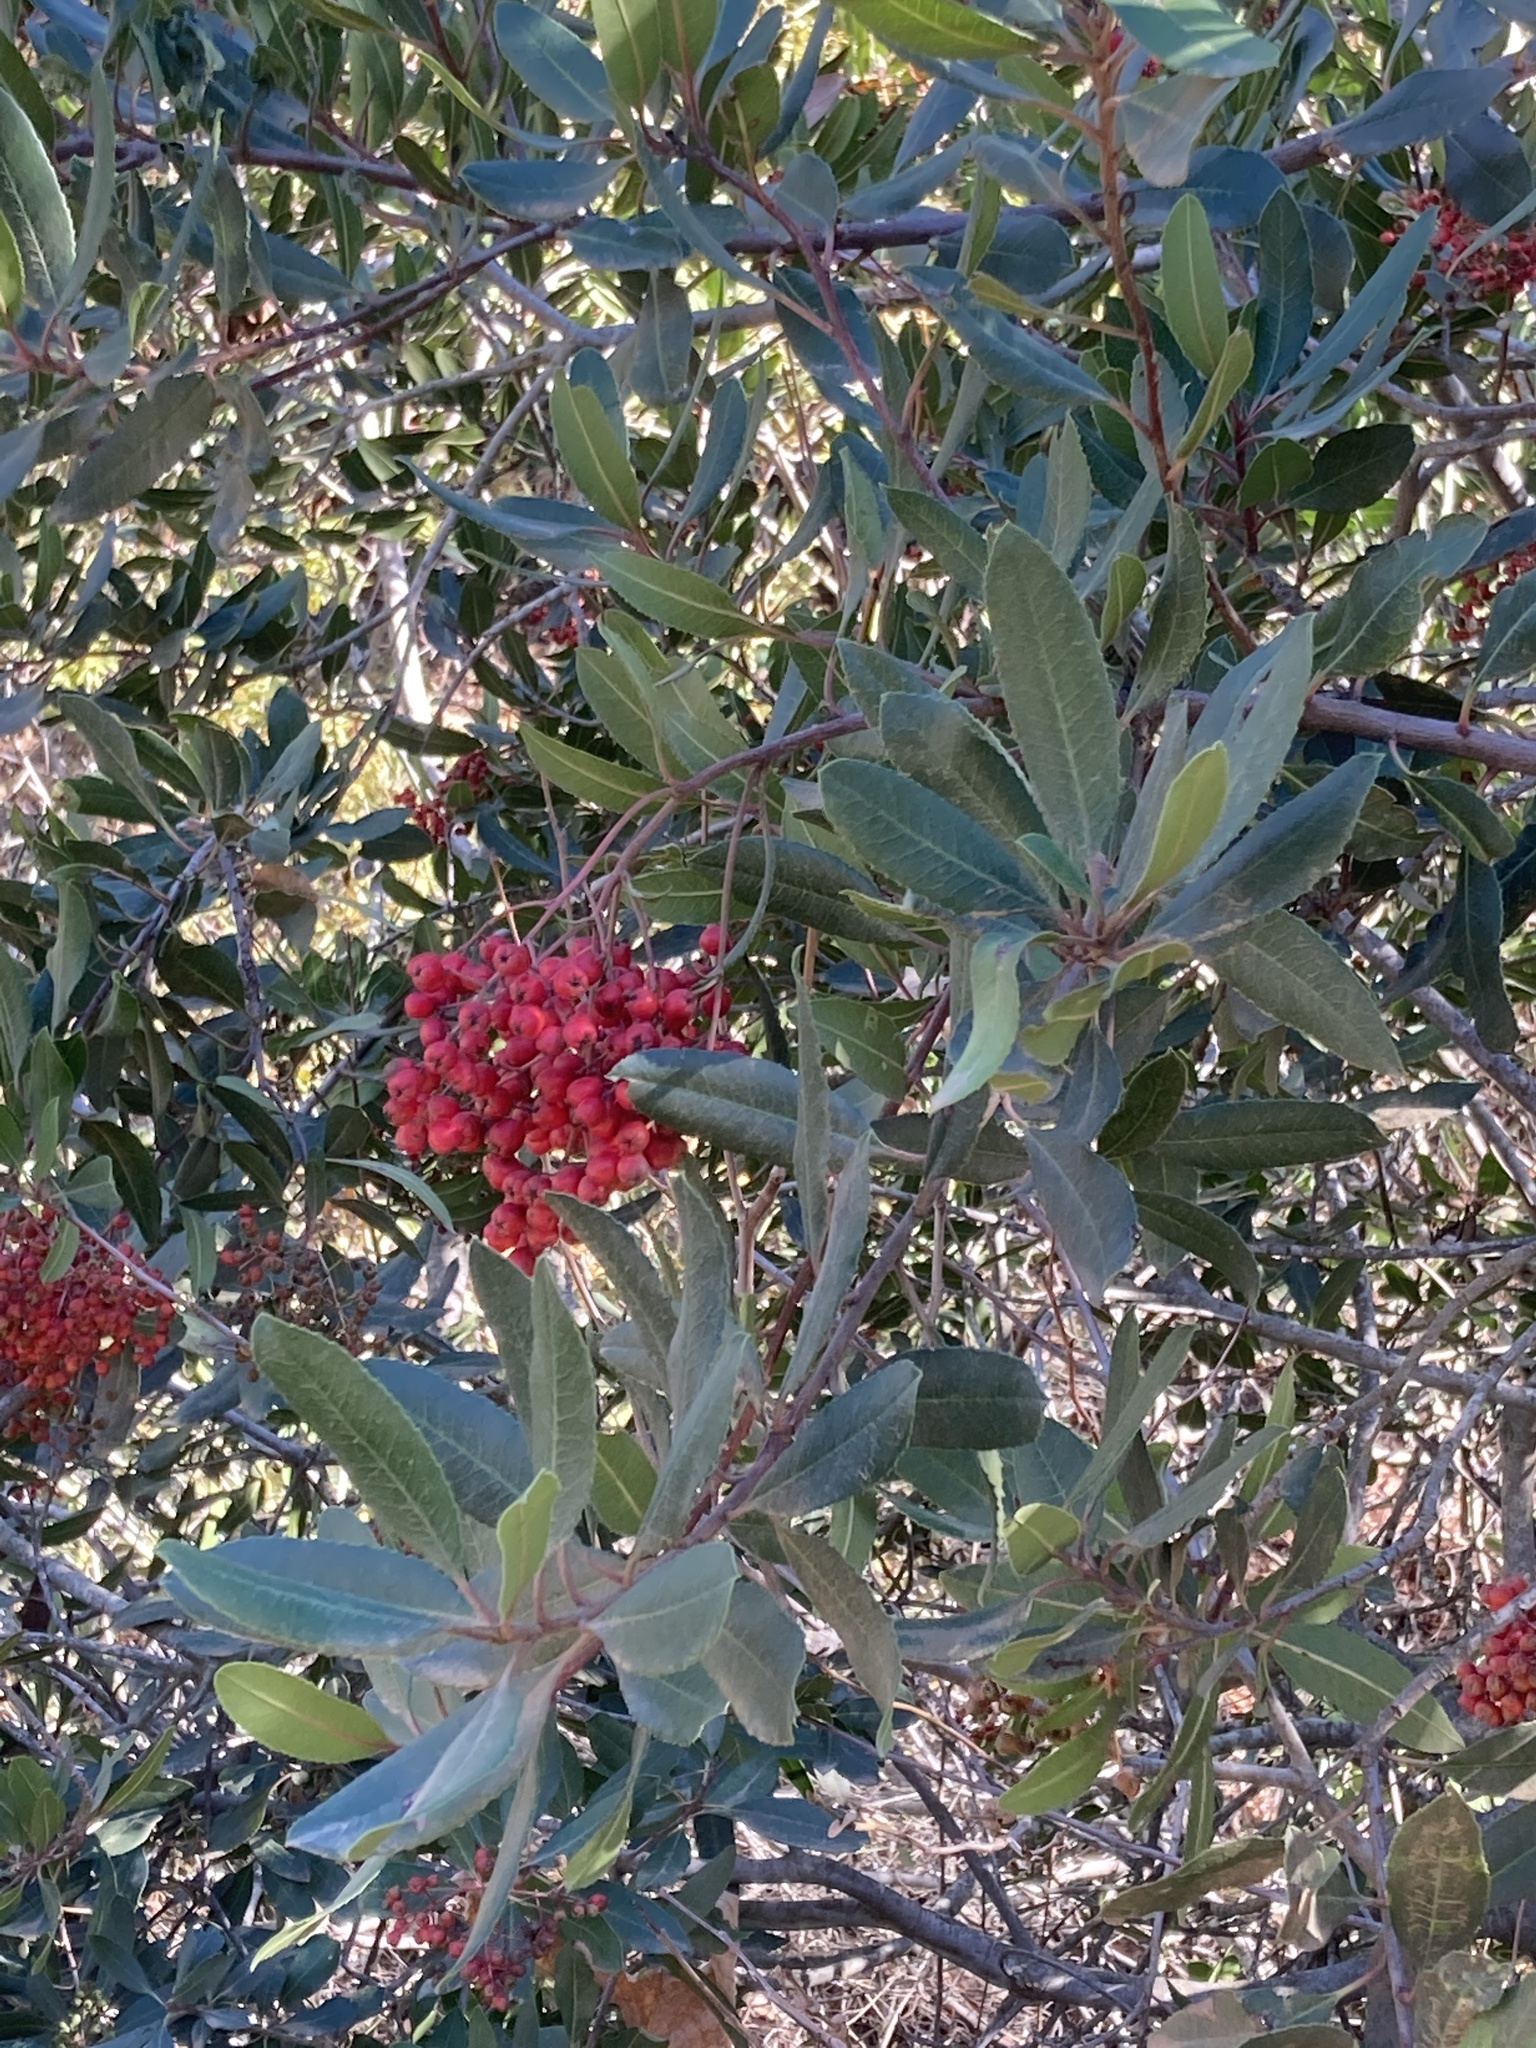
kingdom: Plantae
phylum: Tracheophyta
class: Magnoliopsida
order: Rosales
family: Rosaceae
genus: Heteromeles
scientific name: Heteromeles arbutifolia
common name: California-holly
